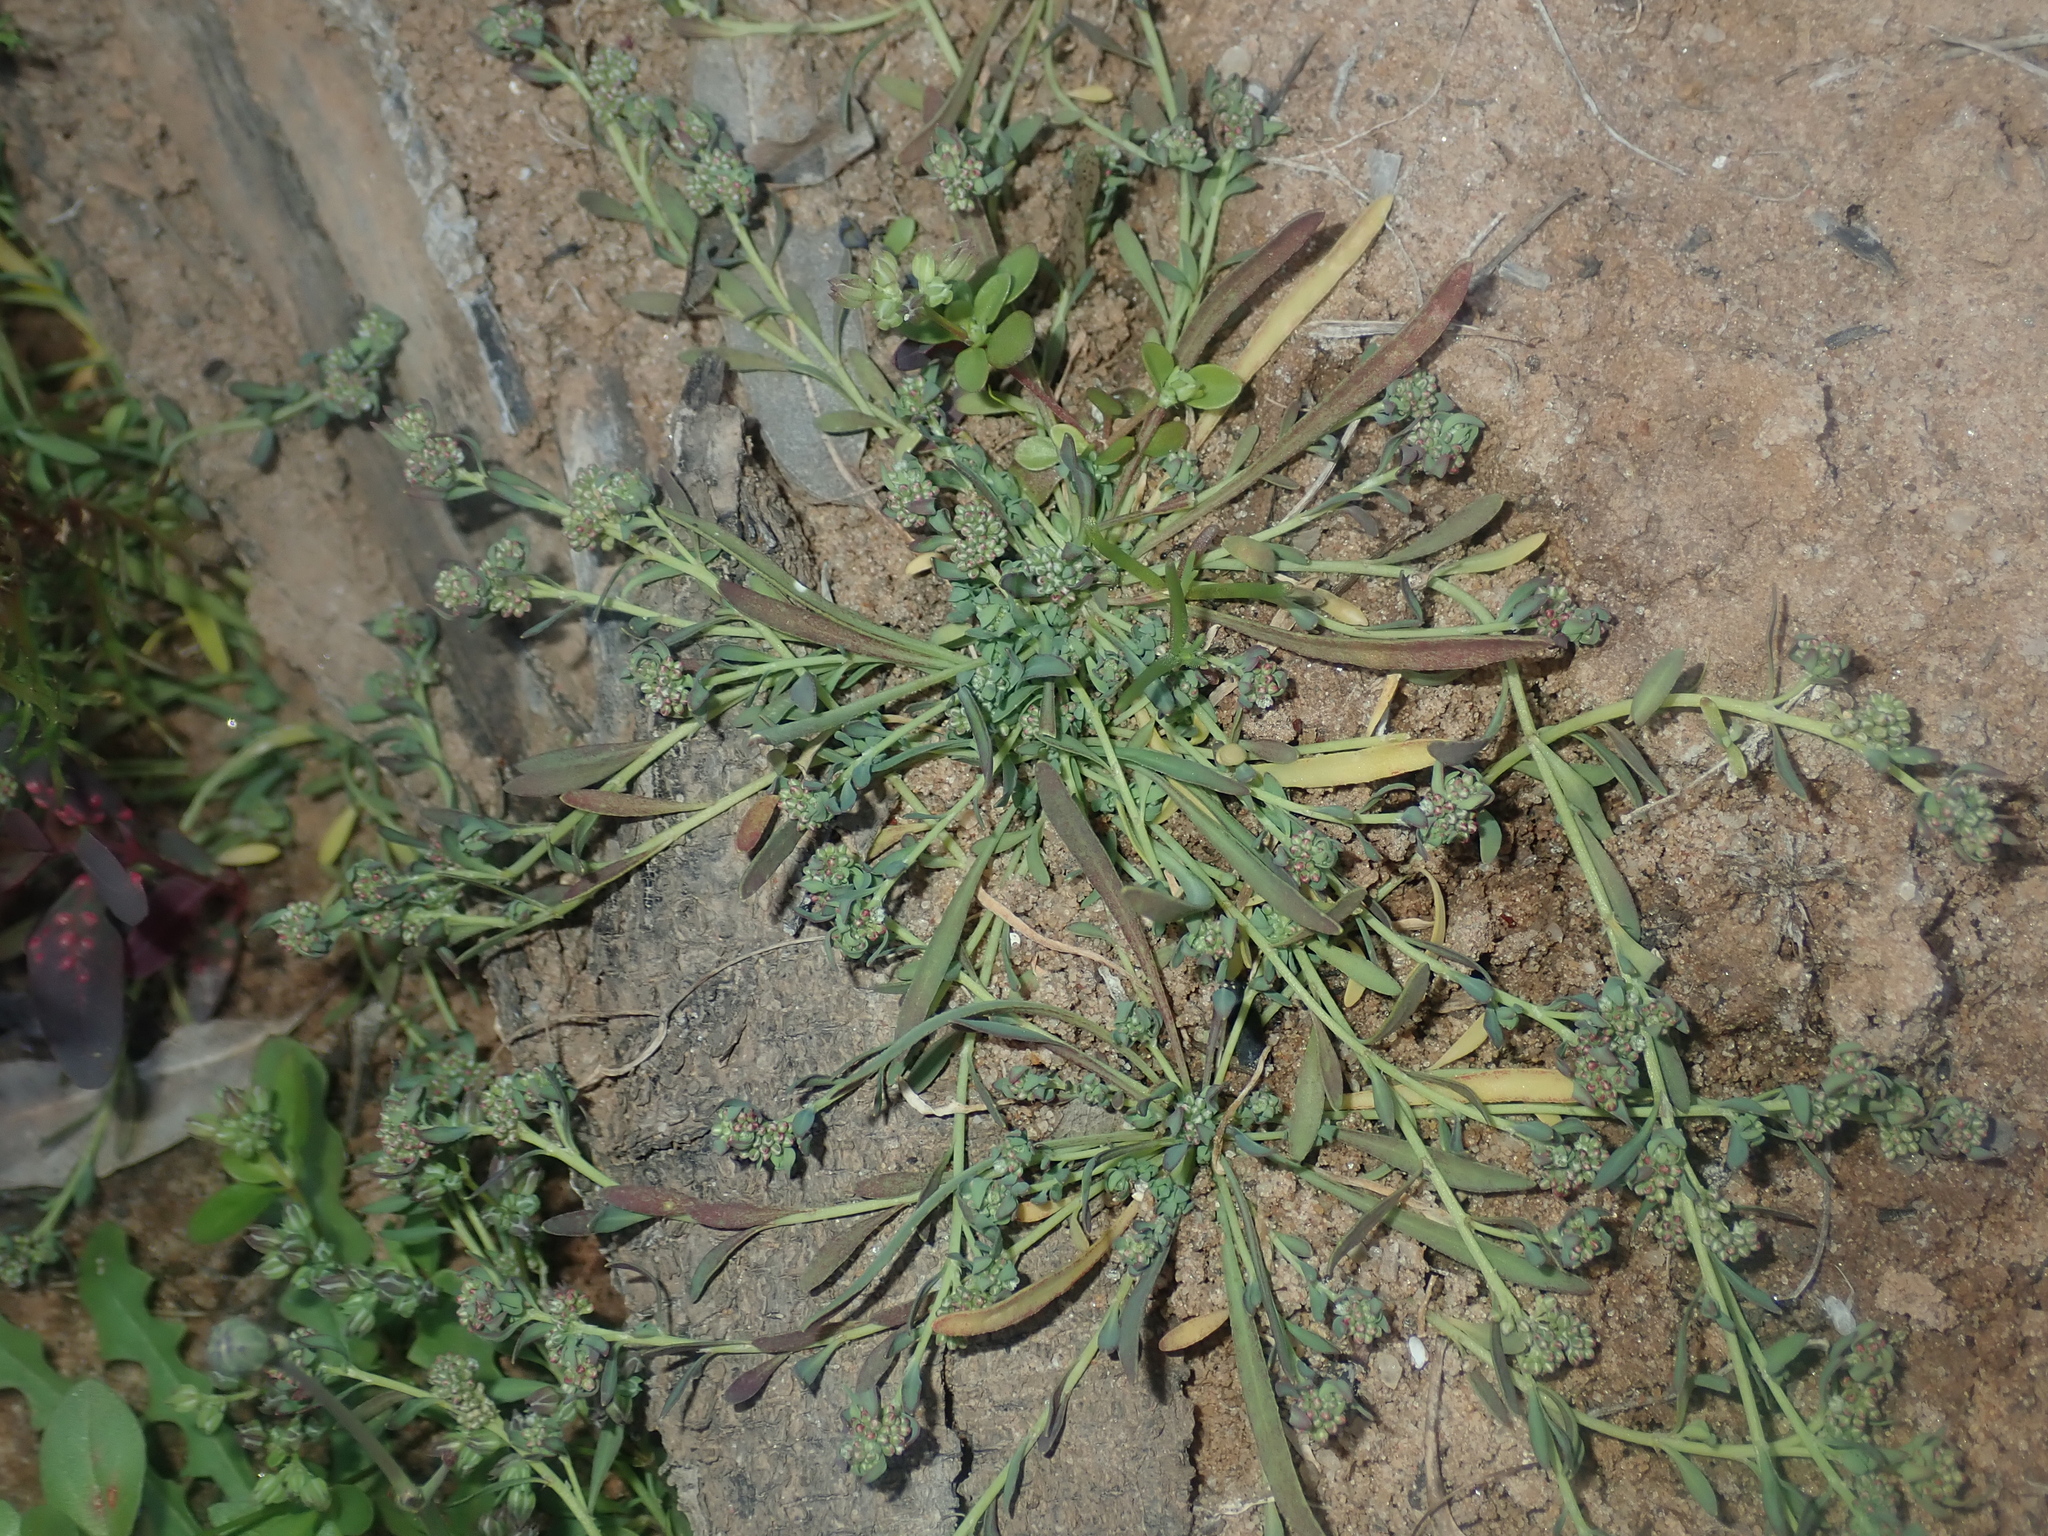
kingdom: Plantae
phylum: Tracheophyta
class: Magnoliopsida
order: Caryophyllales
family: Caryophyllaceae
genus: Polycarpon
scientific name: Polycarpon tetraphyllum
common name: Four-leaved all-seed
